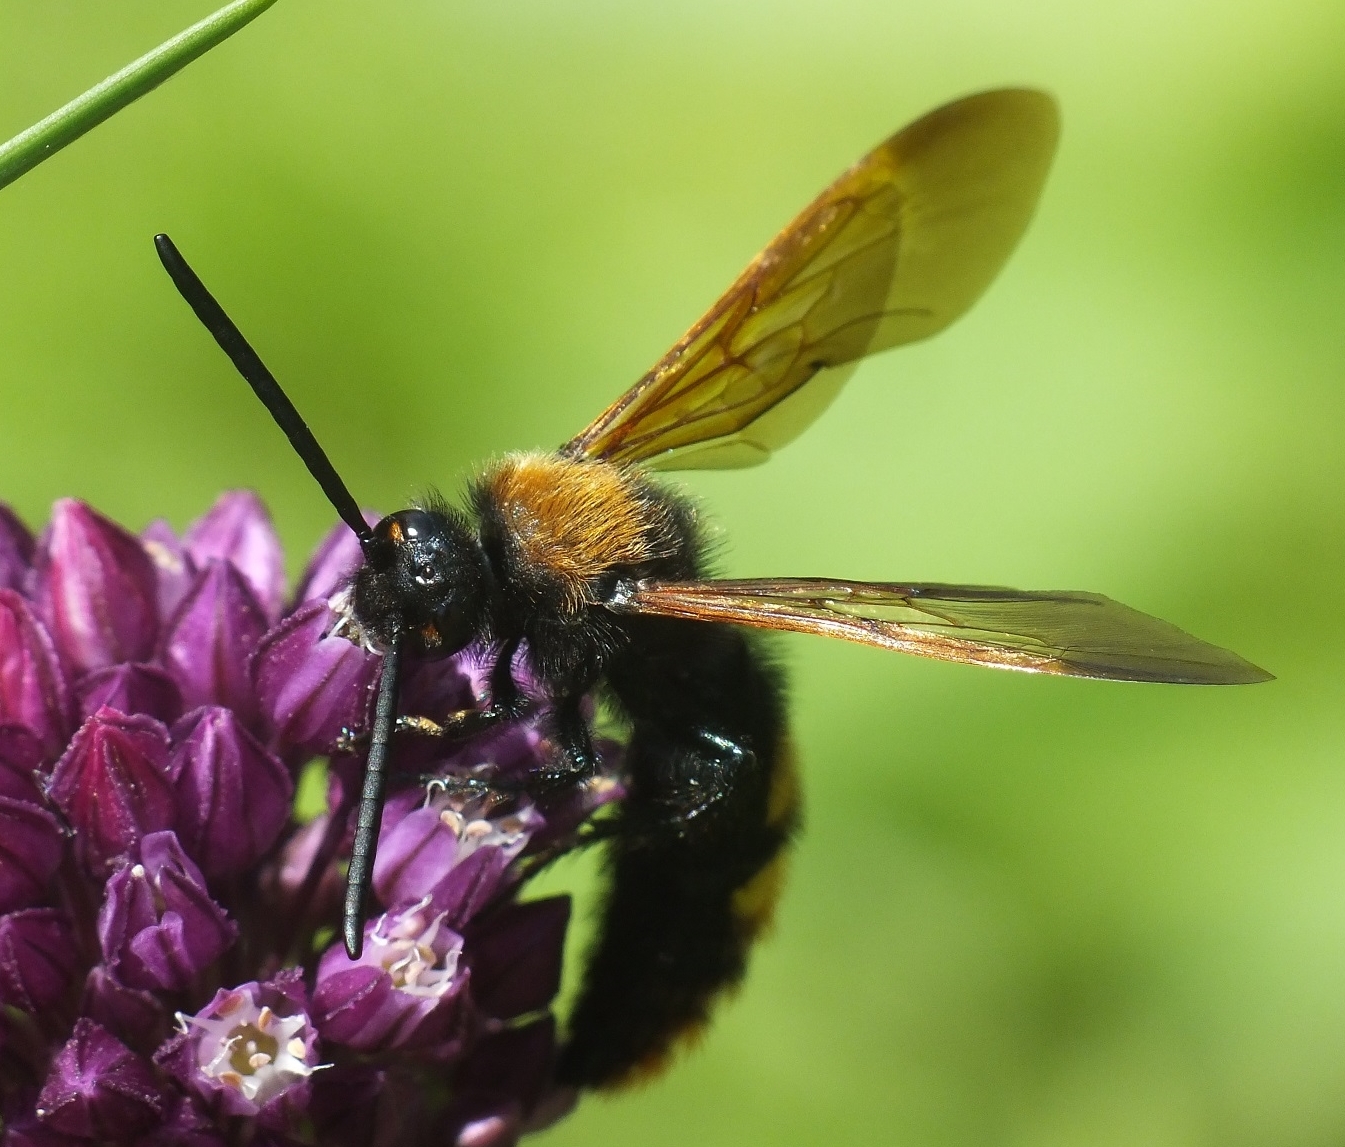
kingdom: Animalia
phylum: Arthropoda
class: Insecta
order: Hymenoptera
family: Scoliidae
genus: Megascolia
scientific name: Megascolia maculata
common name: Mammoth wasp
